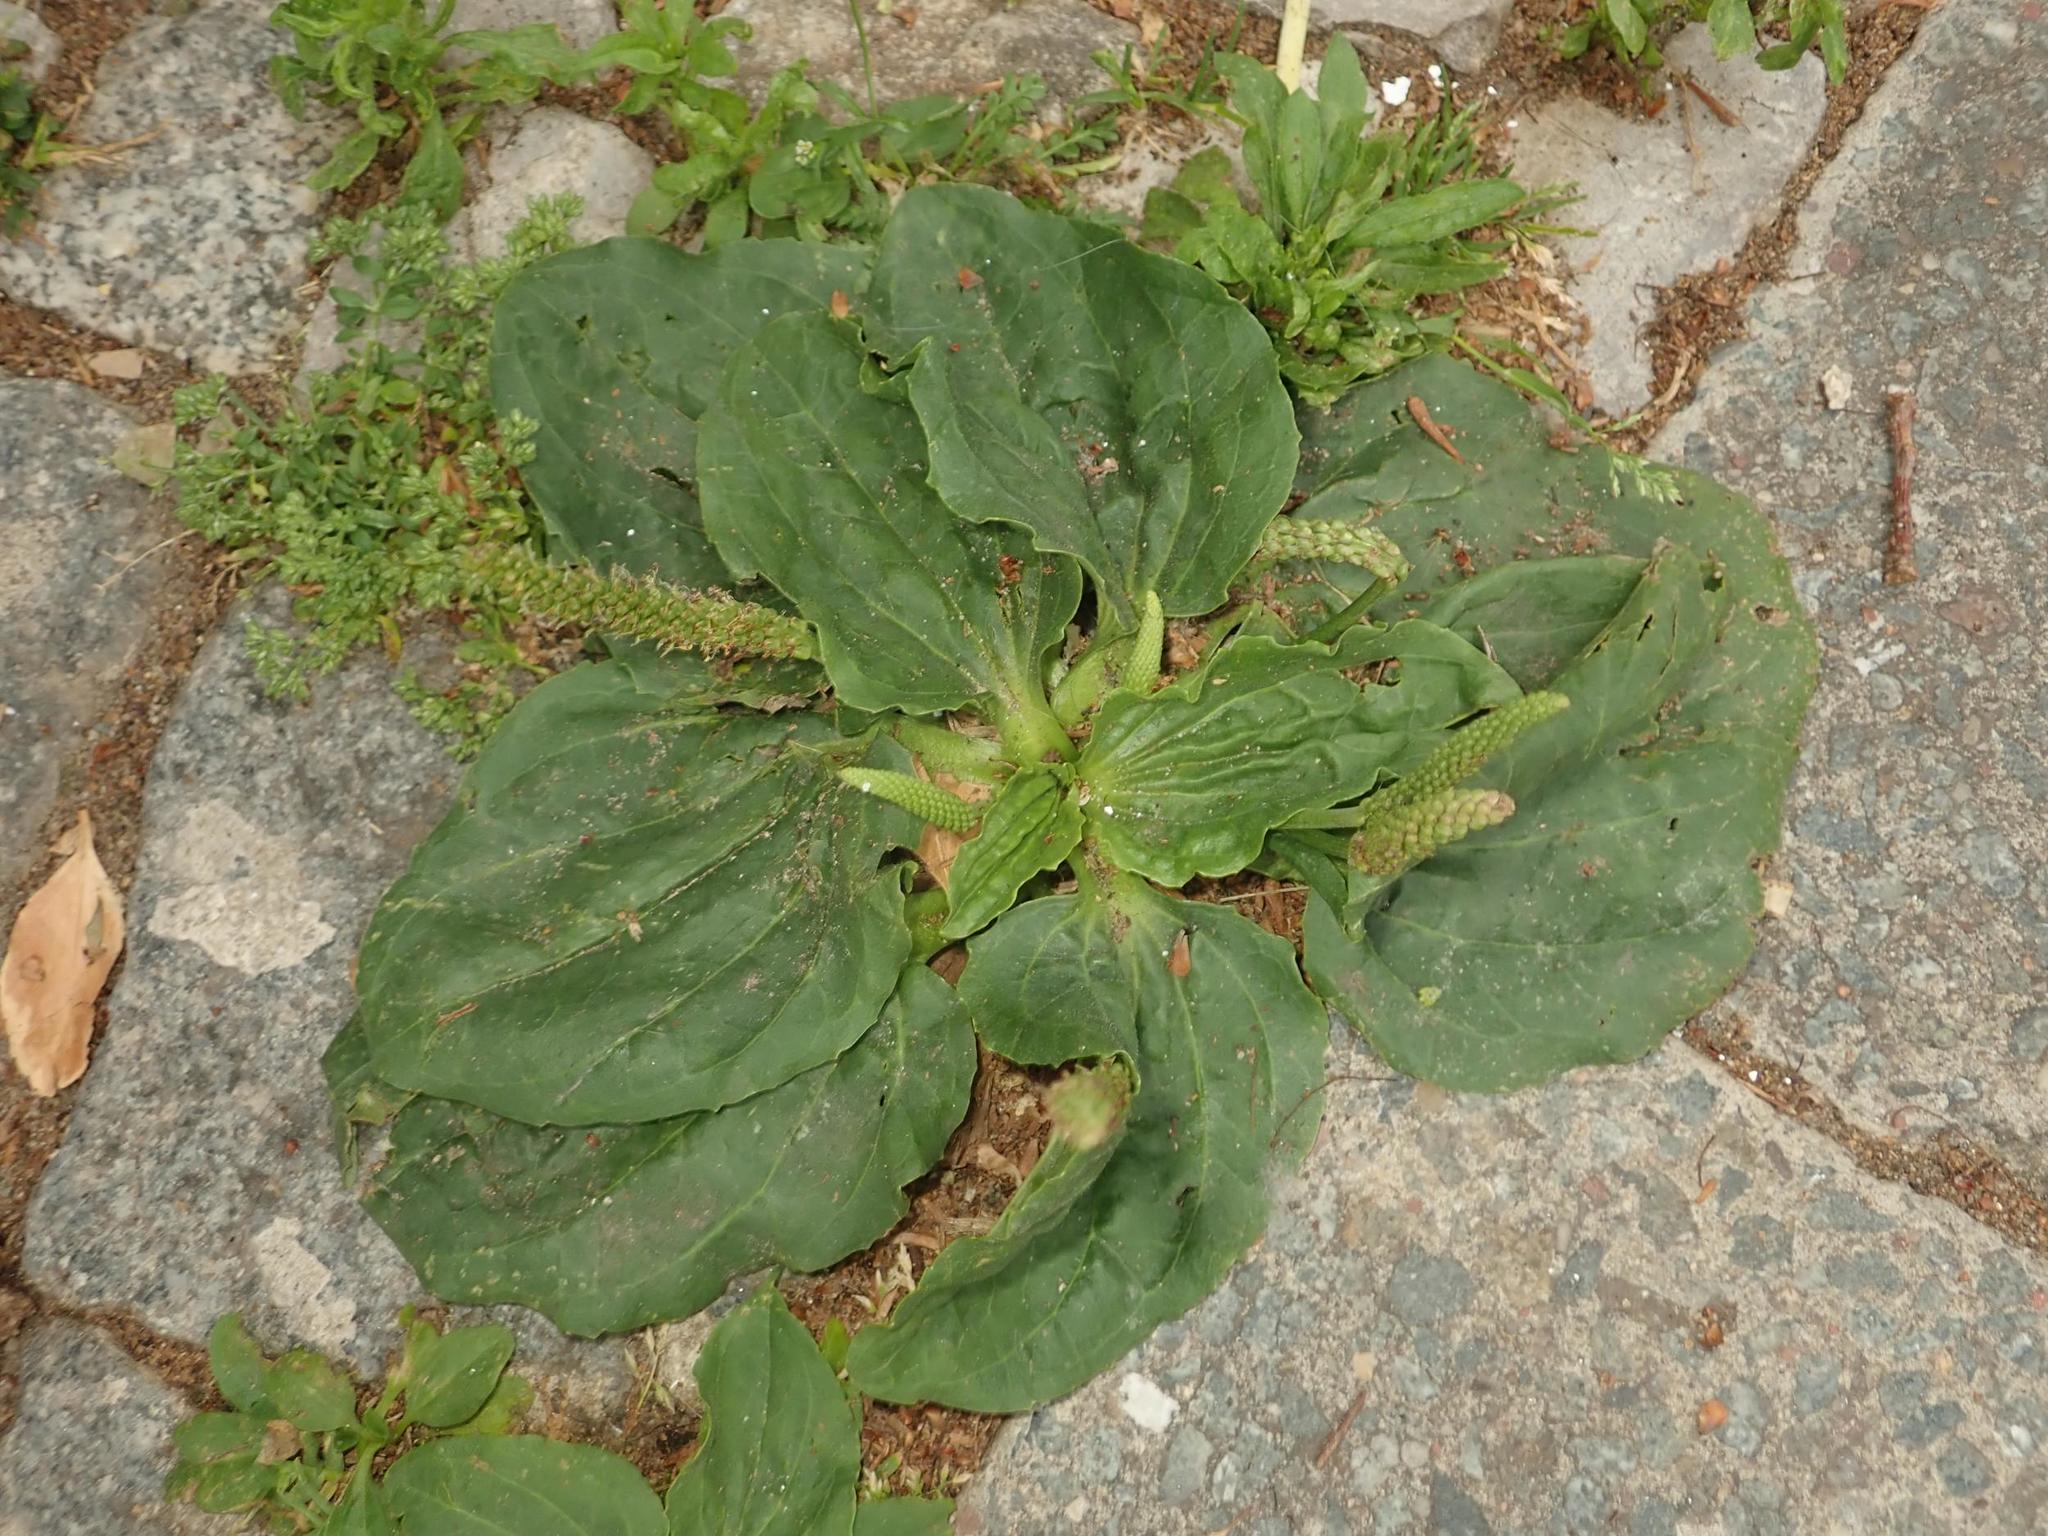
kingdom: Plantae
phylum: Tracheophyta
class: Magnoliopsida
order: Lamiales
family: Plantaginaceae
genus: Plantago
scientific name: Plantago major
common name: Common plantain
